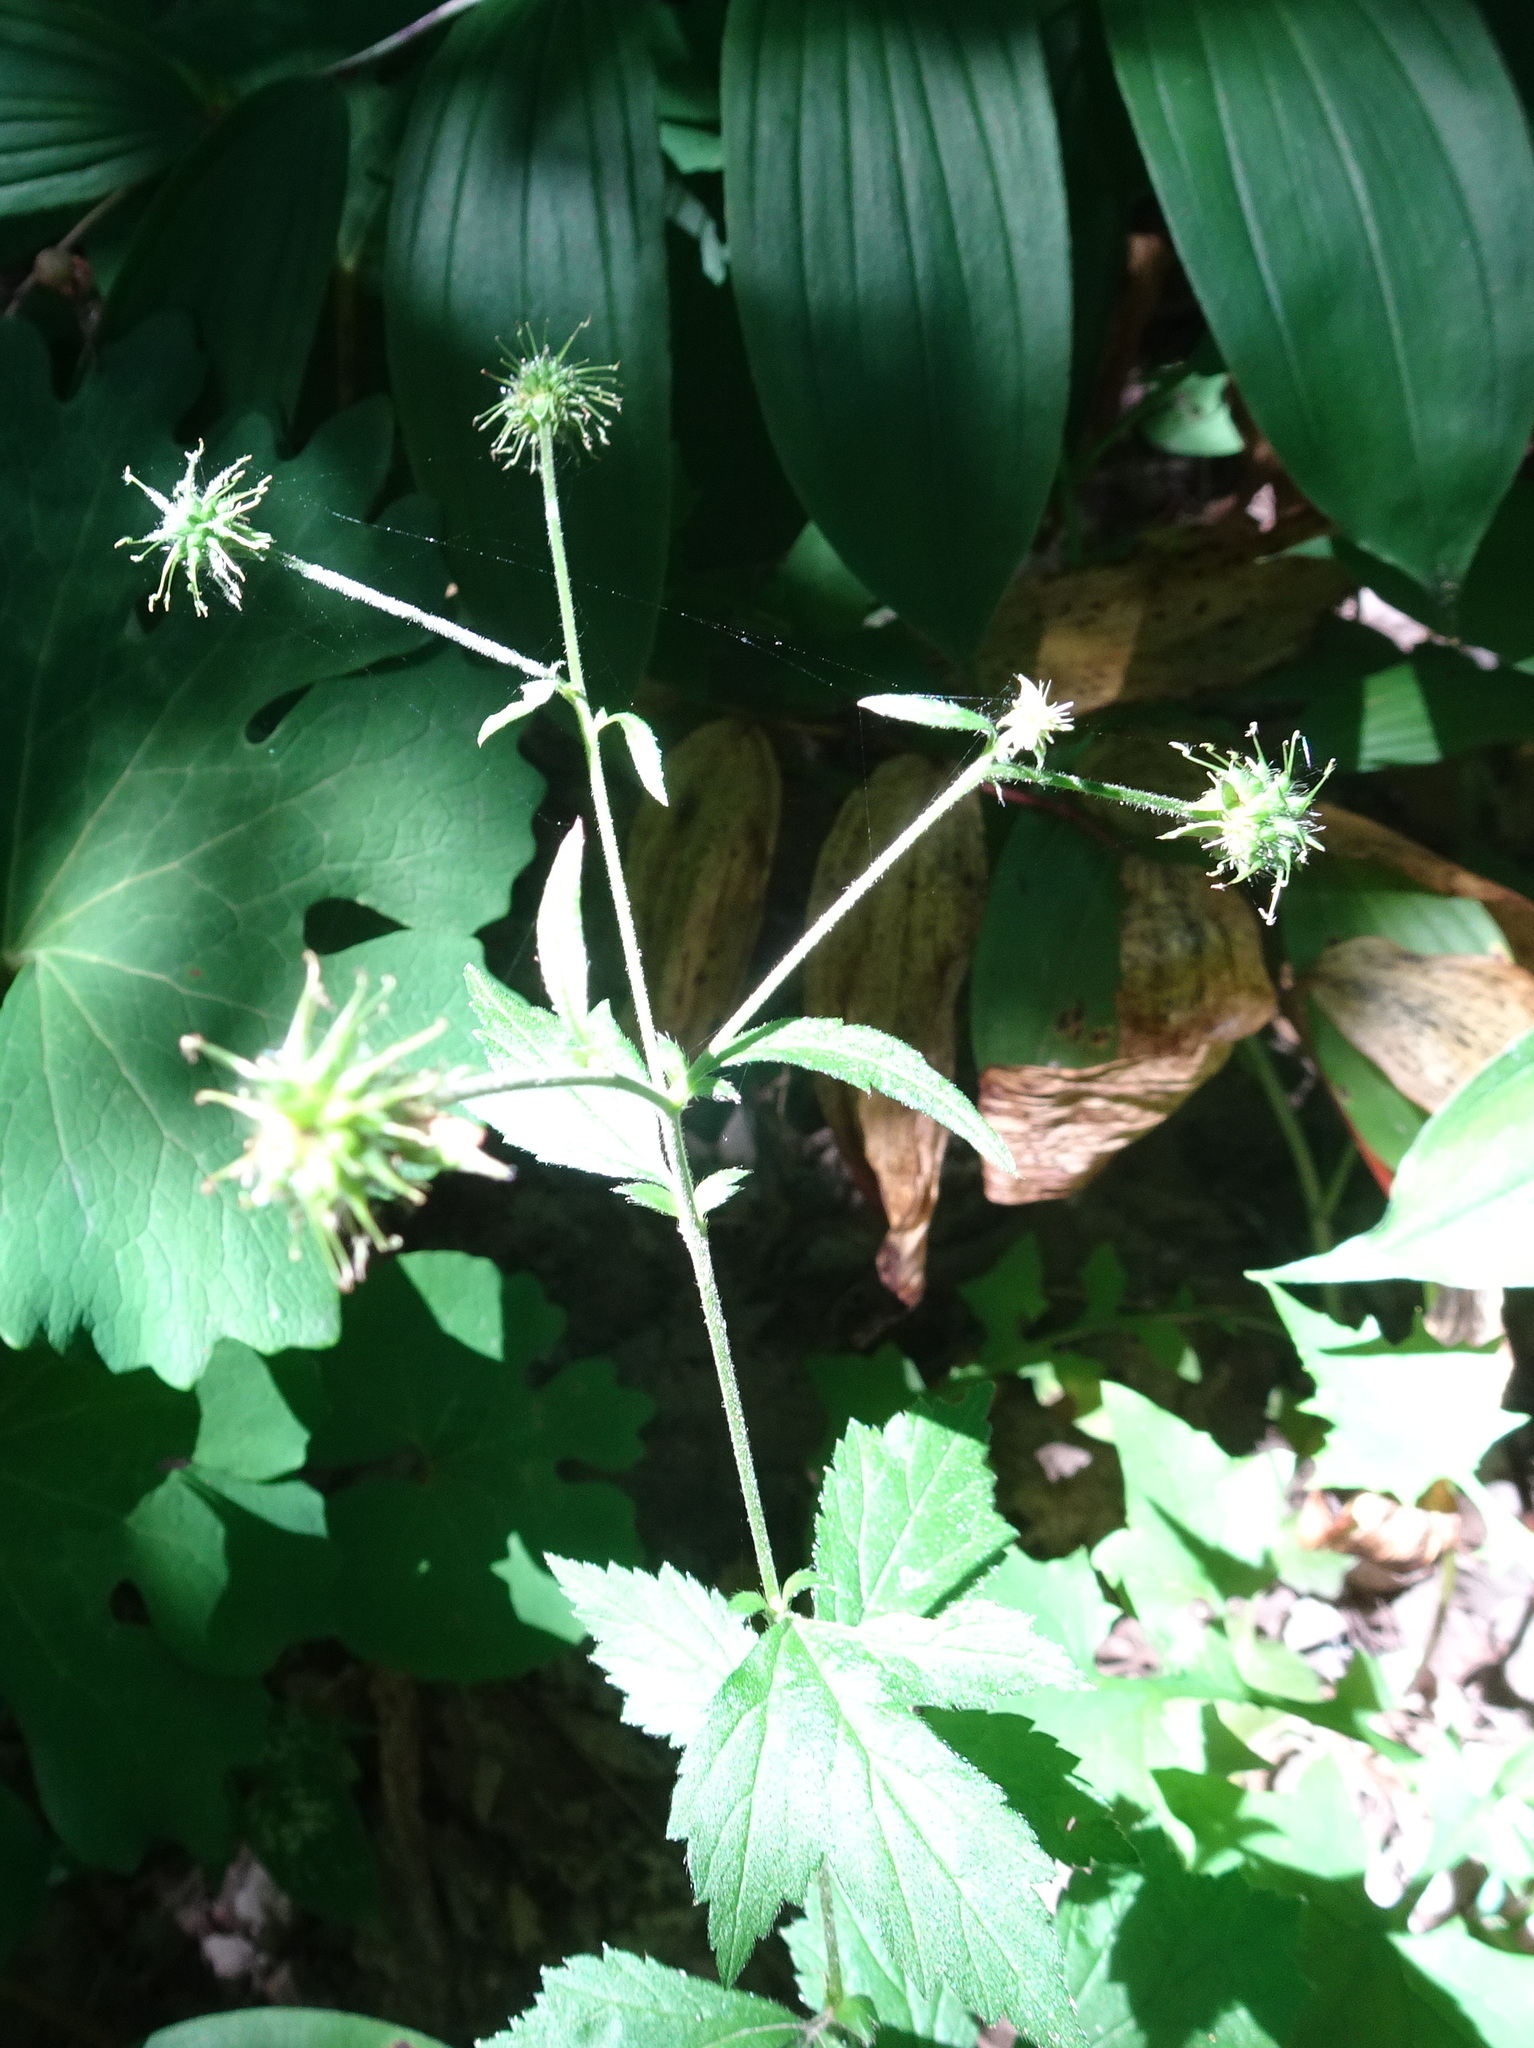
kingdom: Plantae
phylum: Tracheophyta
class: Magnoliopsida
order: Rosales
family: Rosaceae
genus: Geum
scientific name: Geum canadense
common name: White avens
